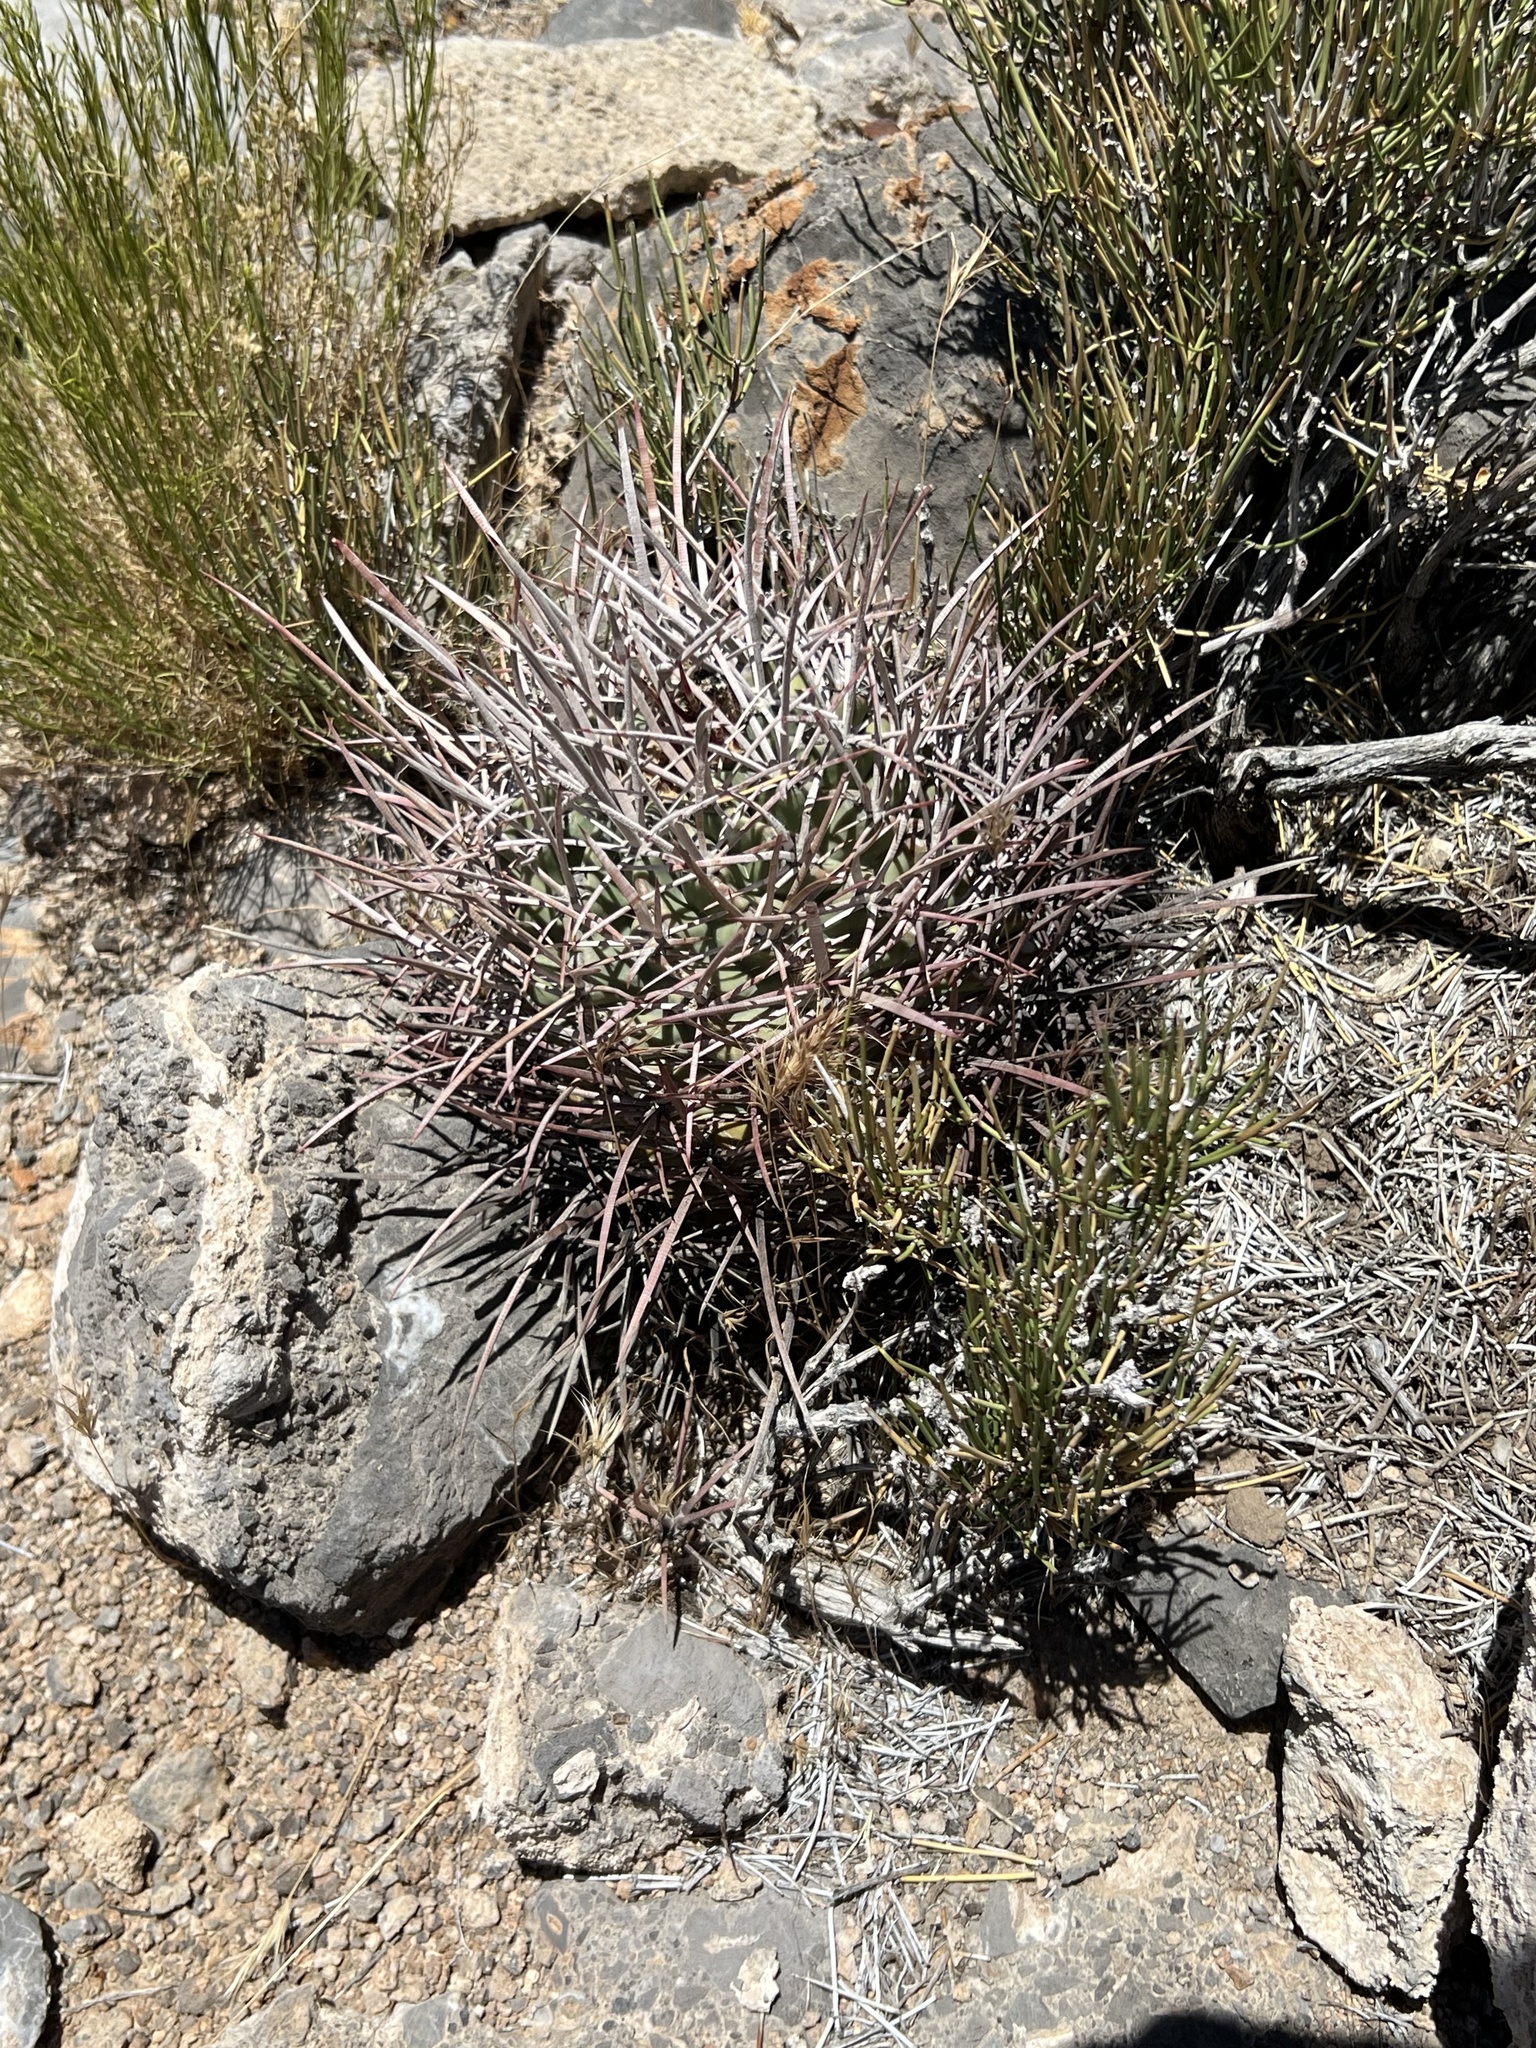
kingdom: Plantae
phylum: Tracheophyta
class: Magnoliopsida
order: Caryophyllales
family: Cactaceae
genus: Echinocactus
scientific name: Echinocactus polycephalus
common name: Cottontop cactus
